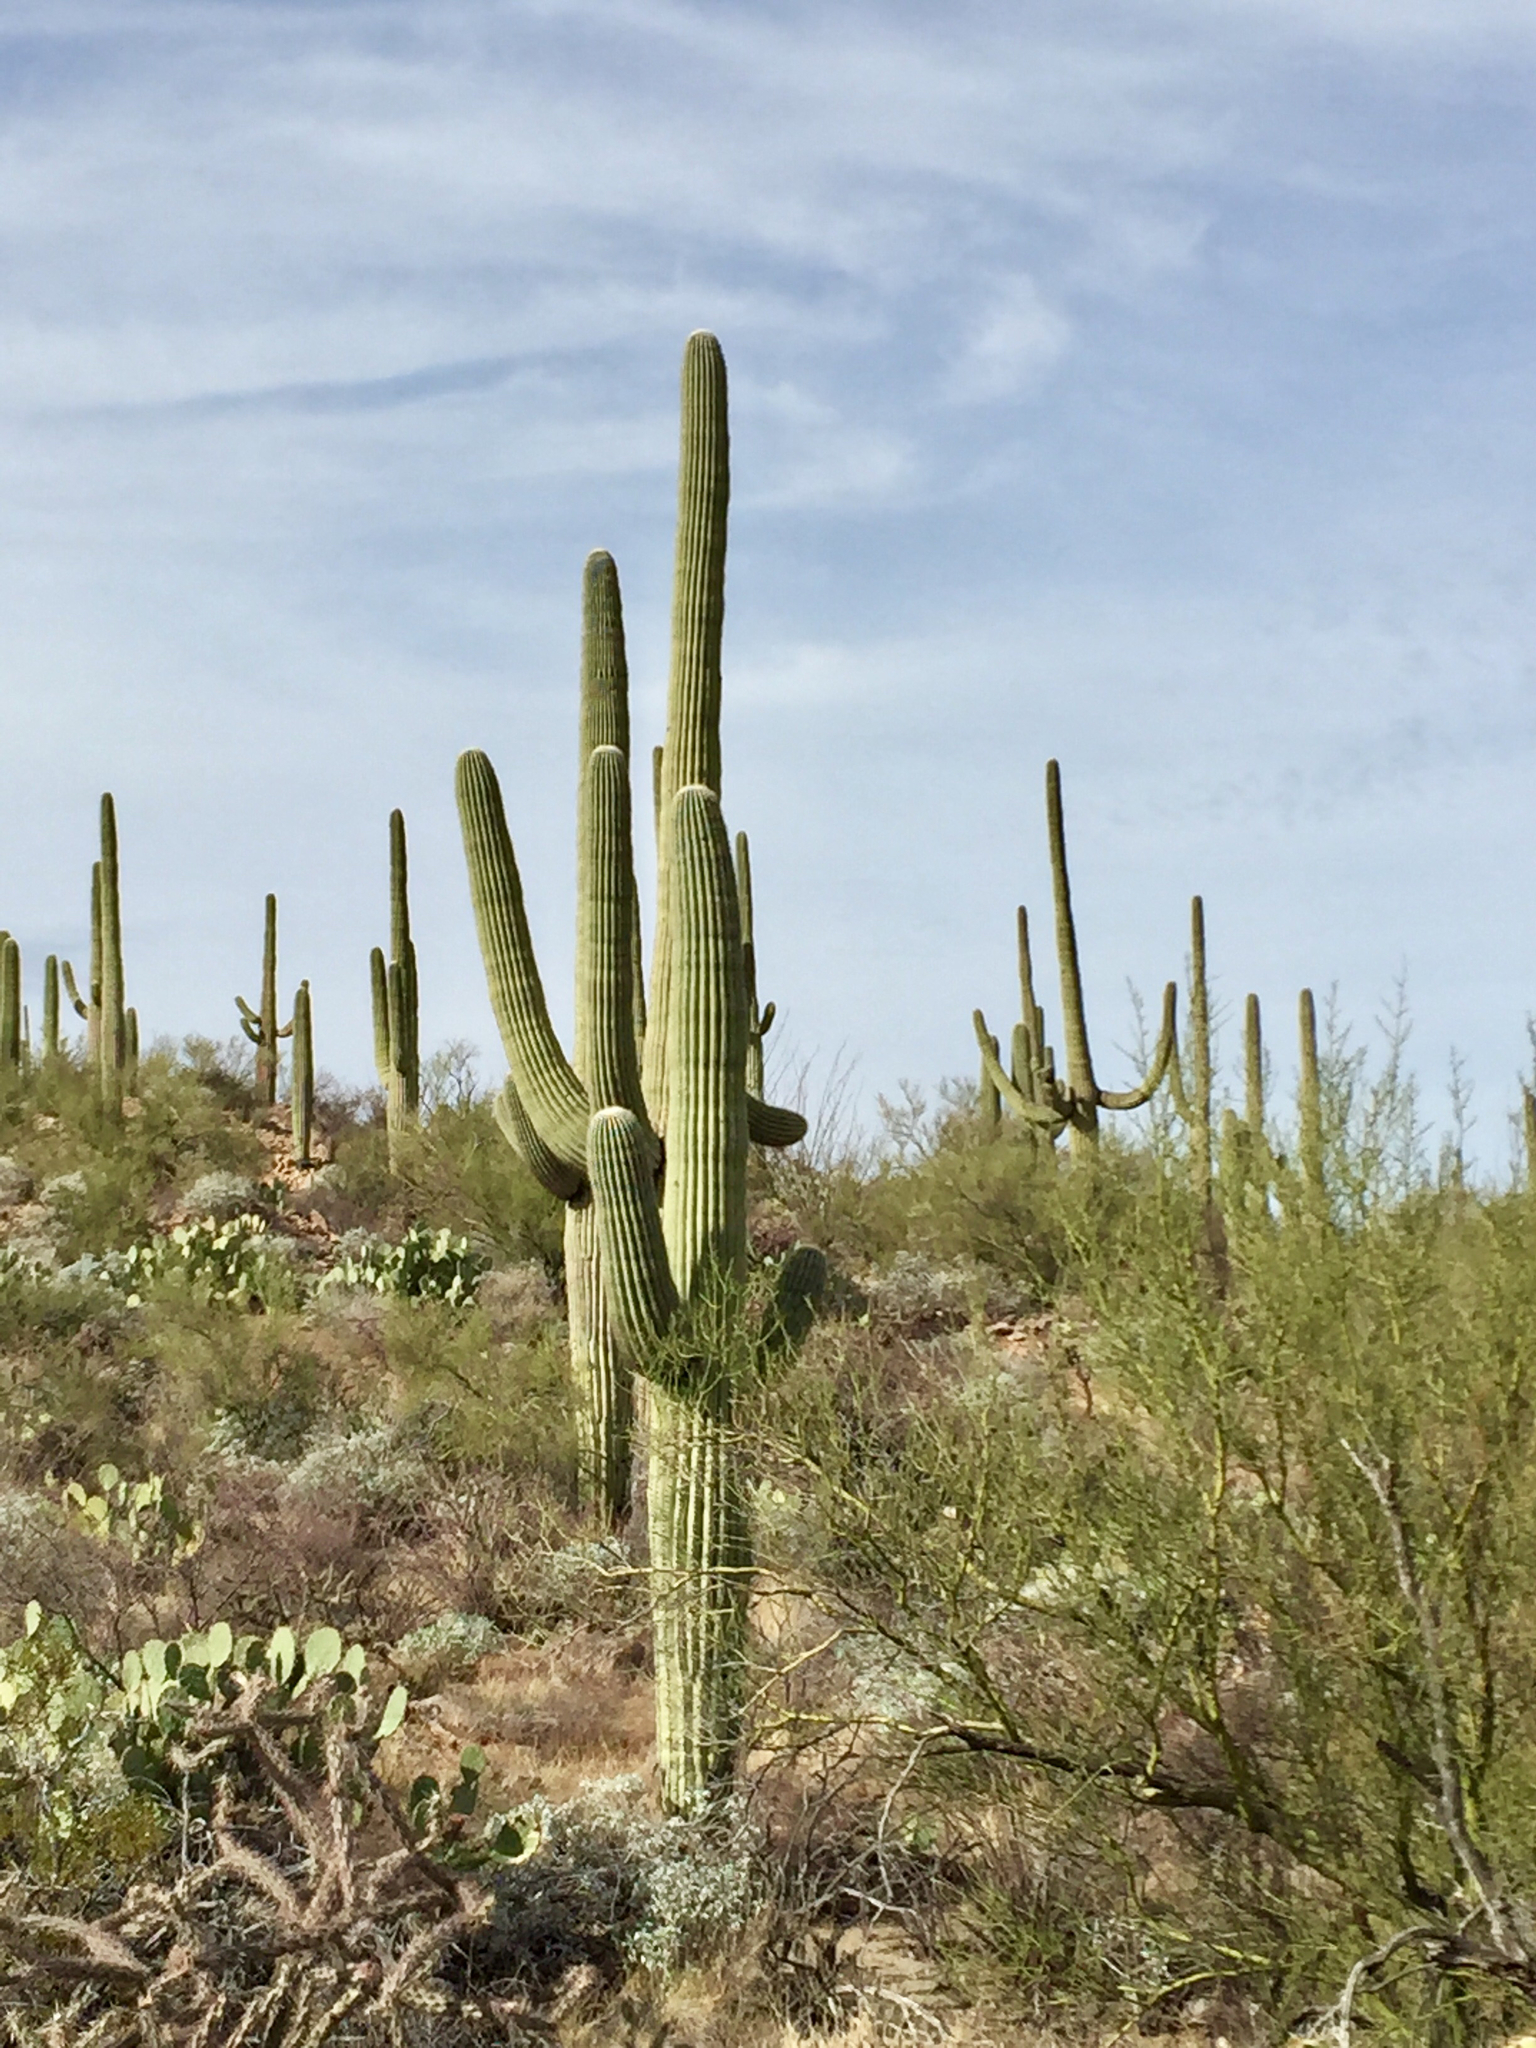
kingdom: Plantae
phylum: Tracheophyta
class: Magnoliopsida
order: Caryophyllales
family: Cactaceae
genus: Carnegiea
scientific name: Carnegiea gigantea
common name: Saguaro
